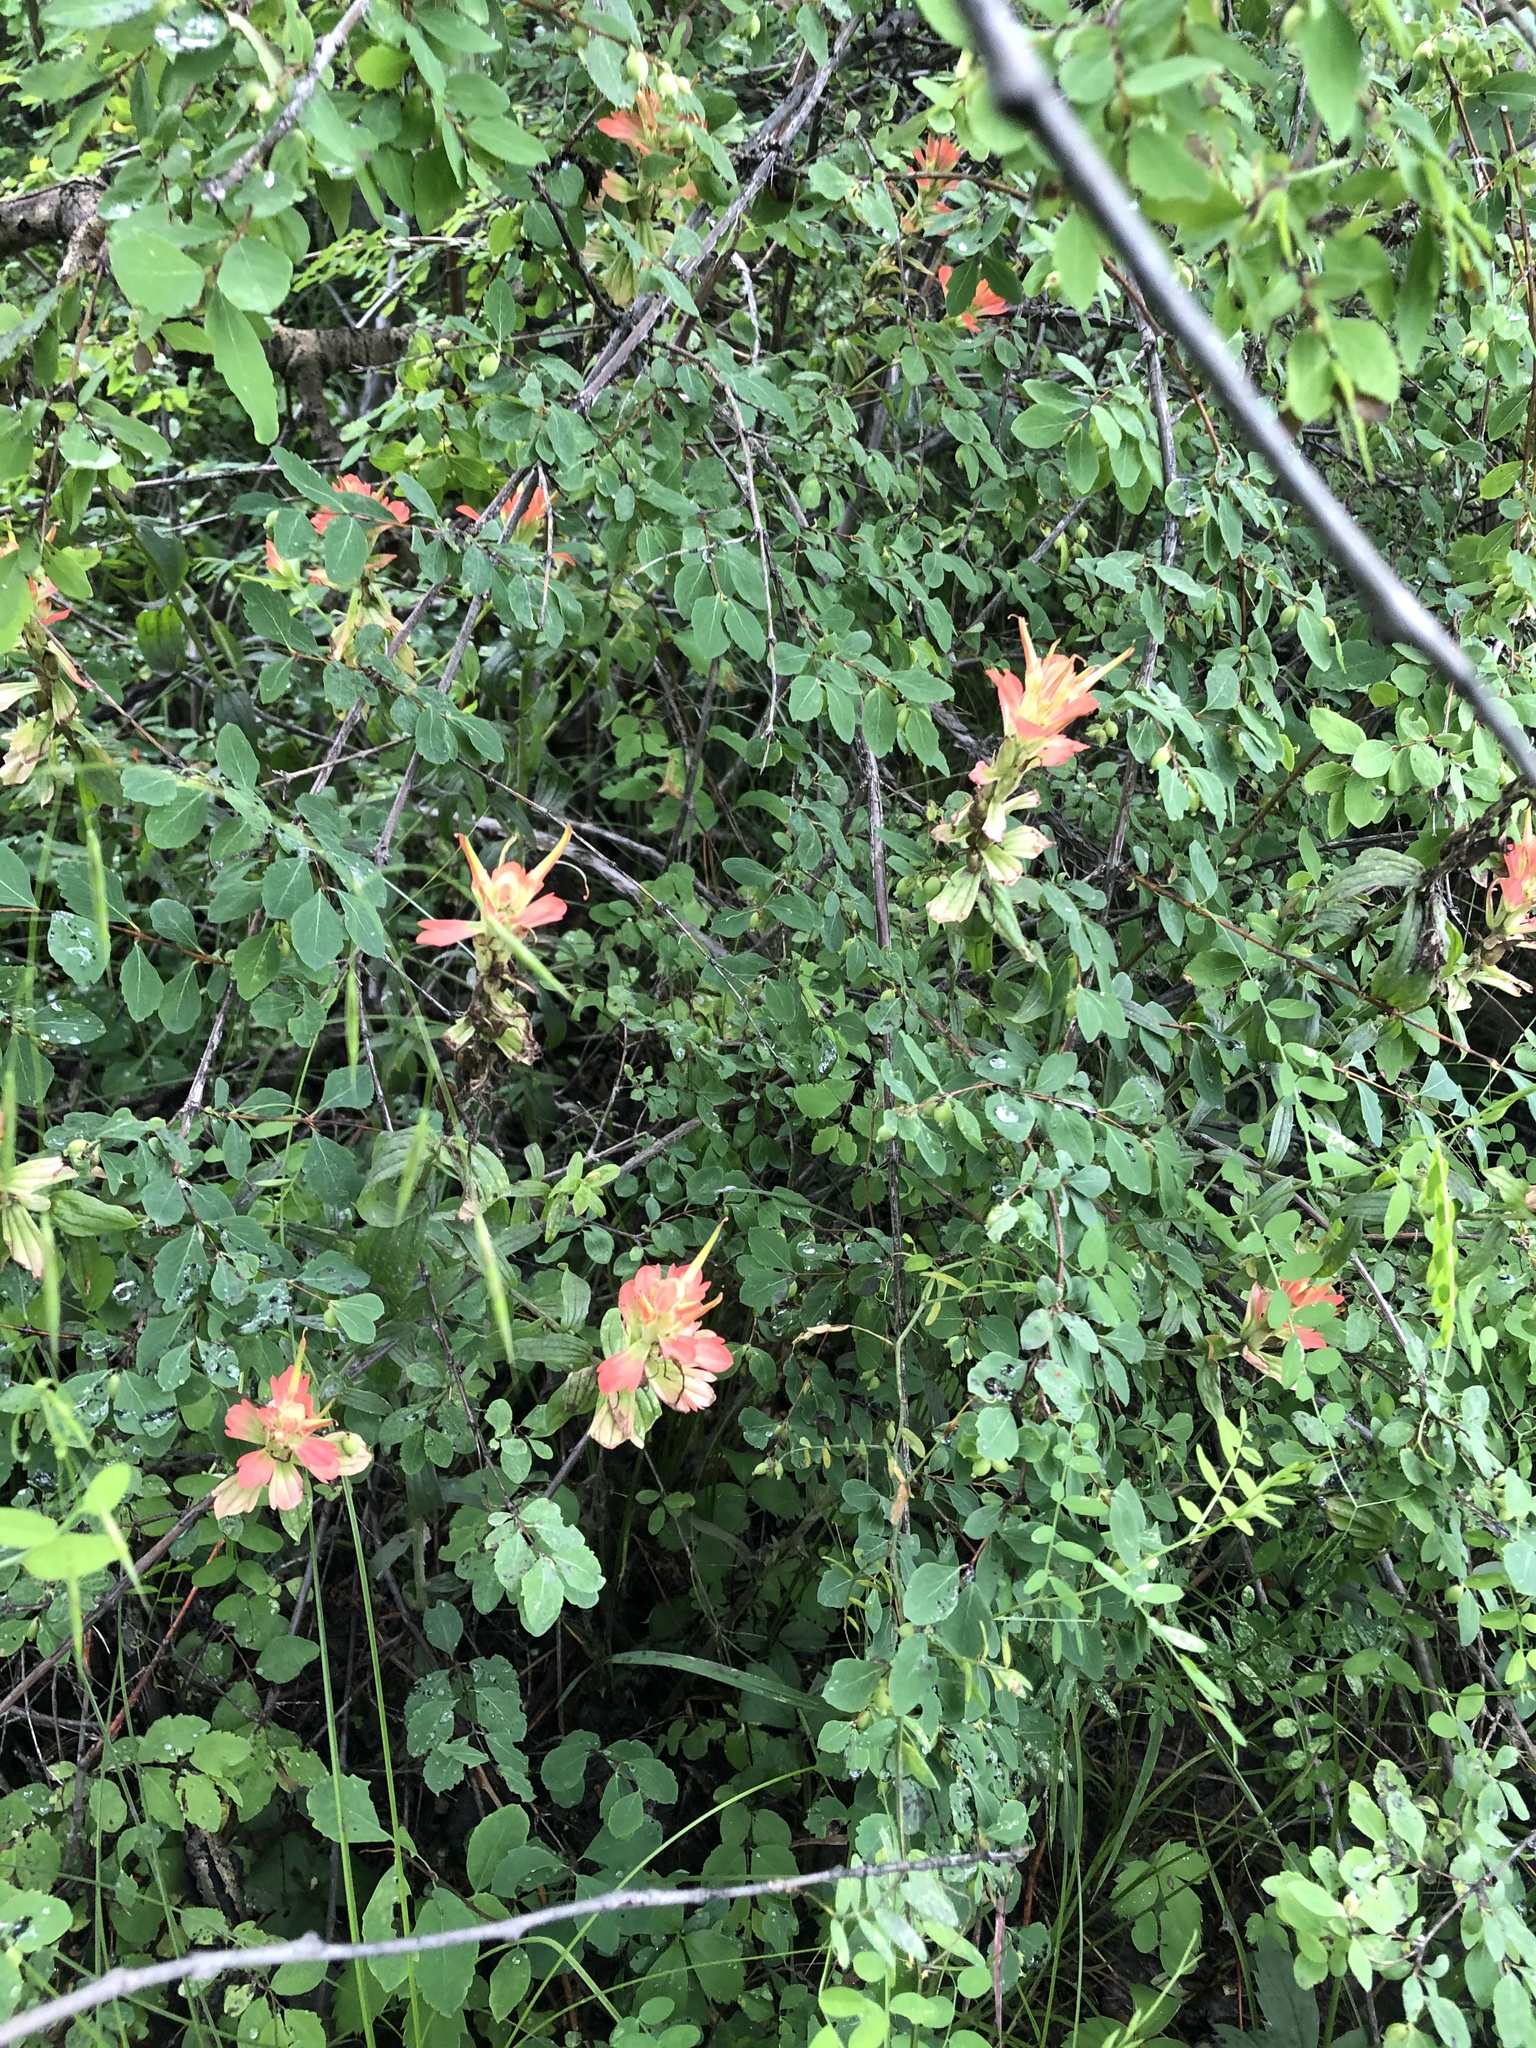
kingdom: Plantae
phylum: Tracheophyta
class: Magnoliopsida
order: Lamiales
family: Orobanchaceae
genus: Castilleja
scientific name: Castilleja nelsonii
